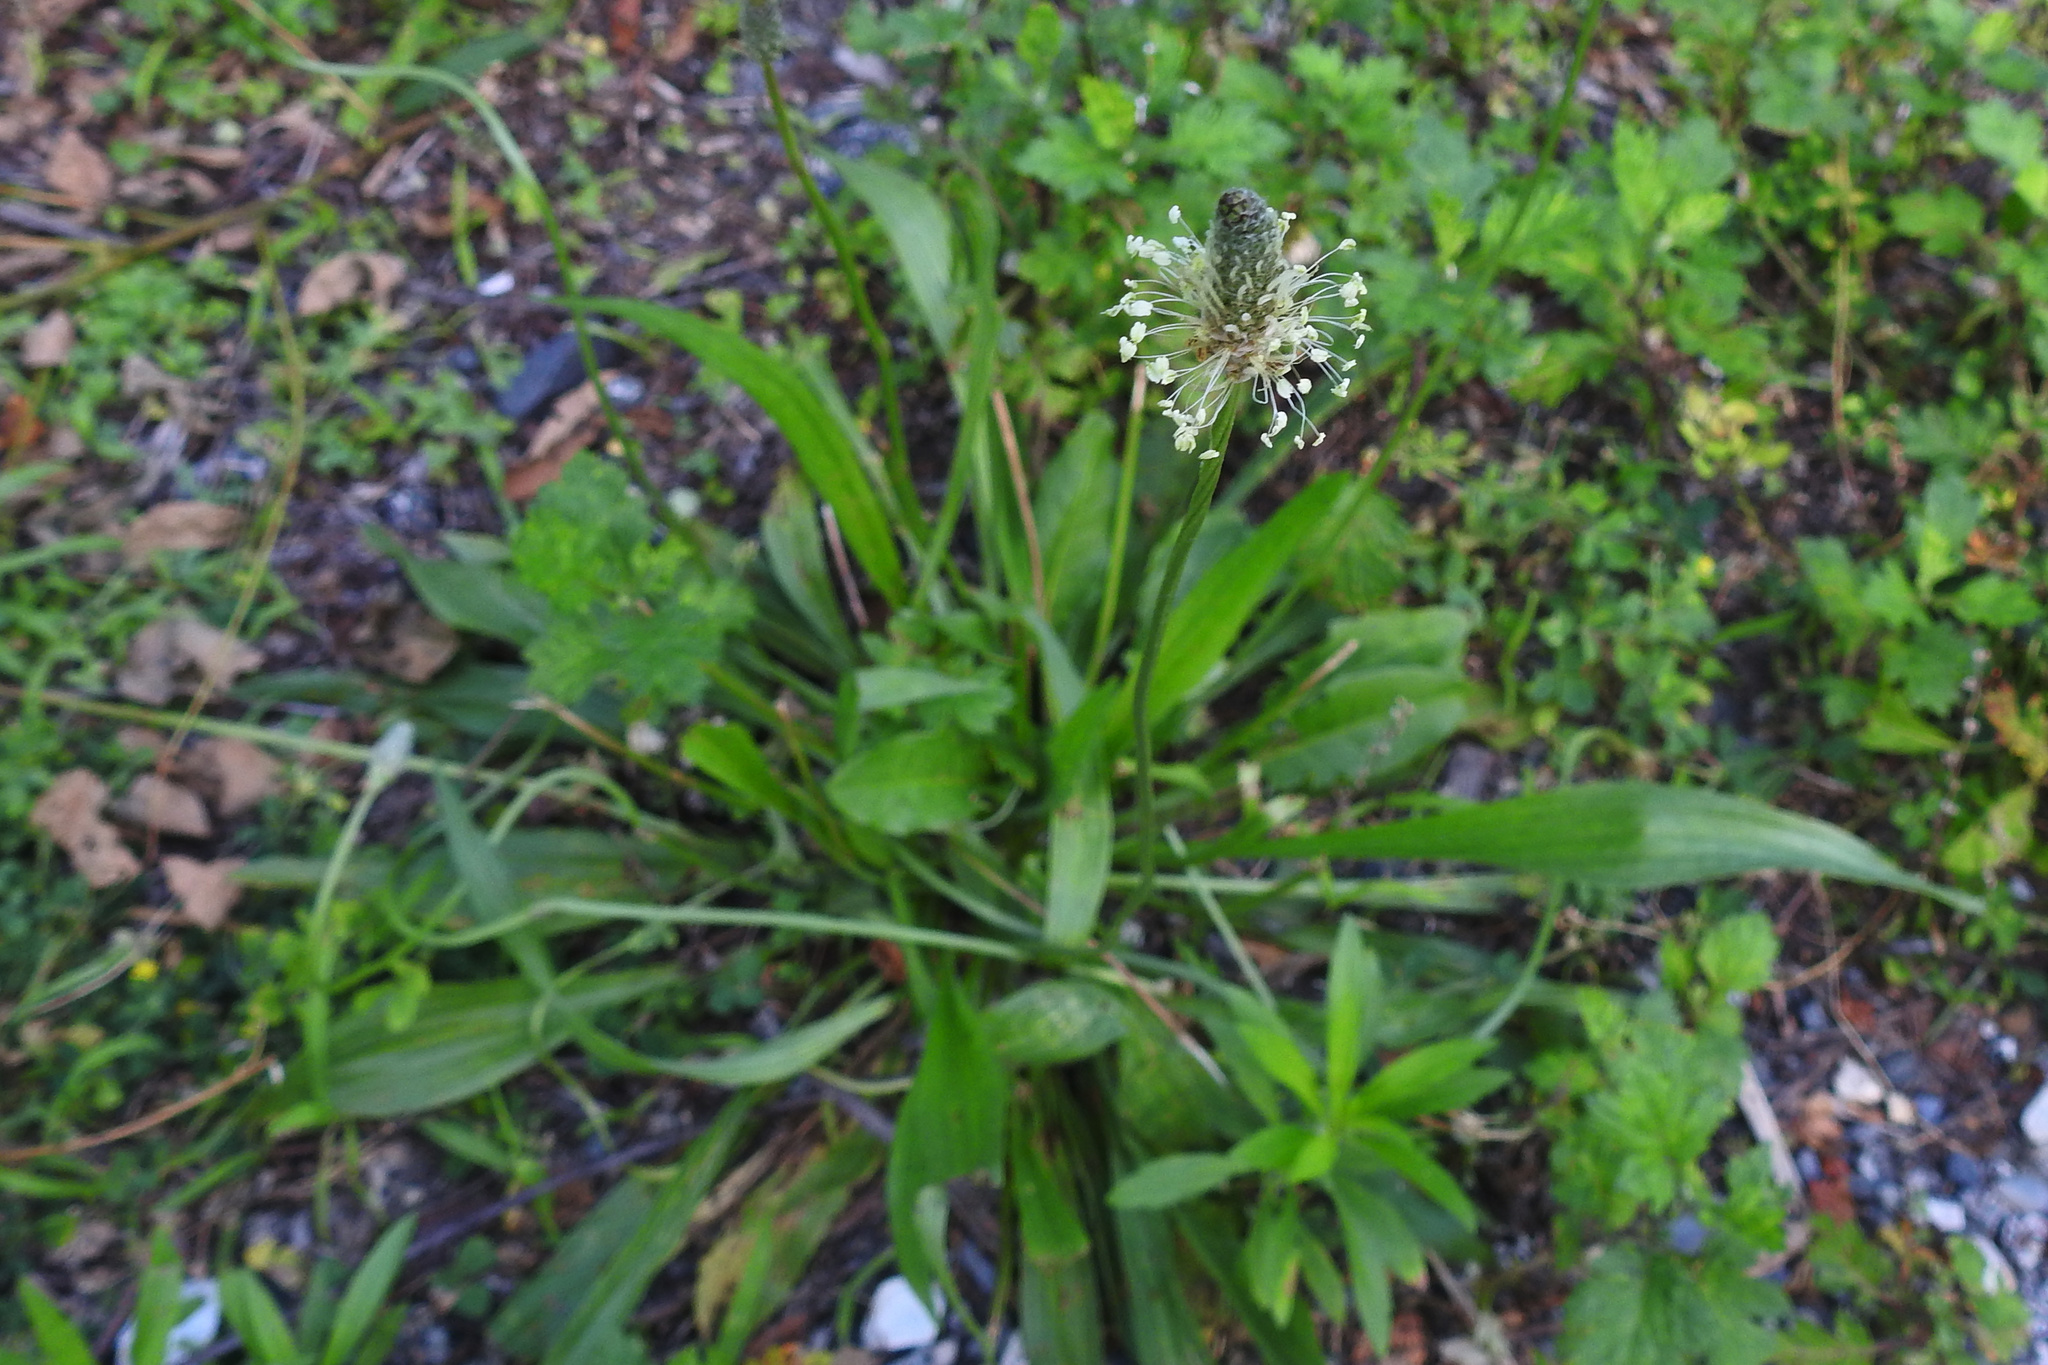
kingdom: Plantae
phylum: Tracheophyta
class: Magnoliopsida
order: Lamiales
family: Plantaginaceae
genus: Plantago
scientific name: Plantago lanceolata
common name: Ribwort plantain
